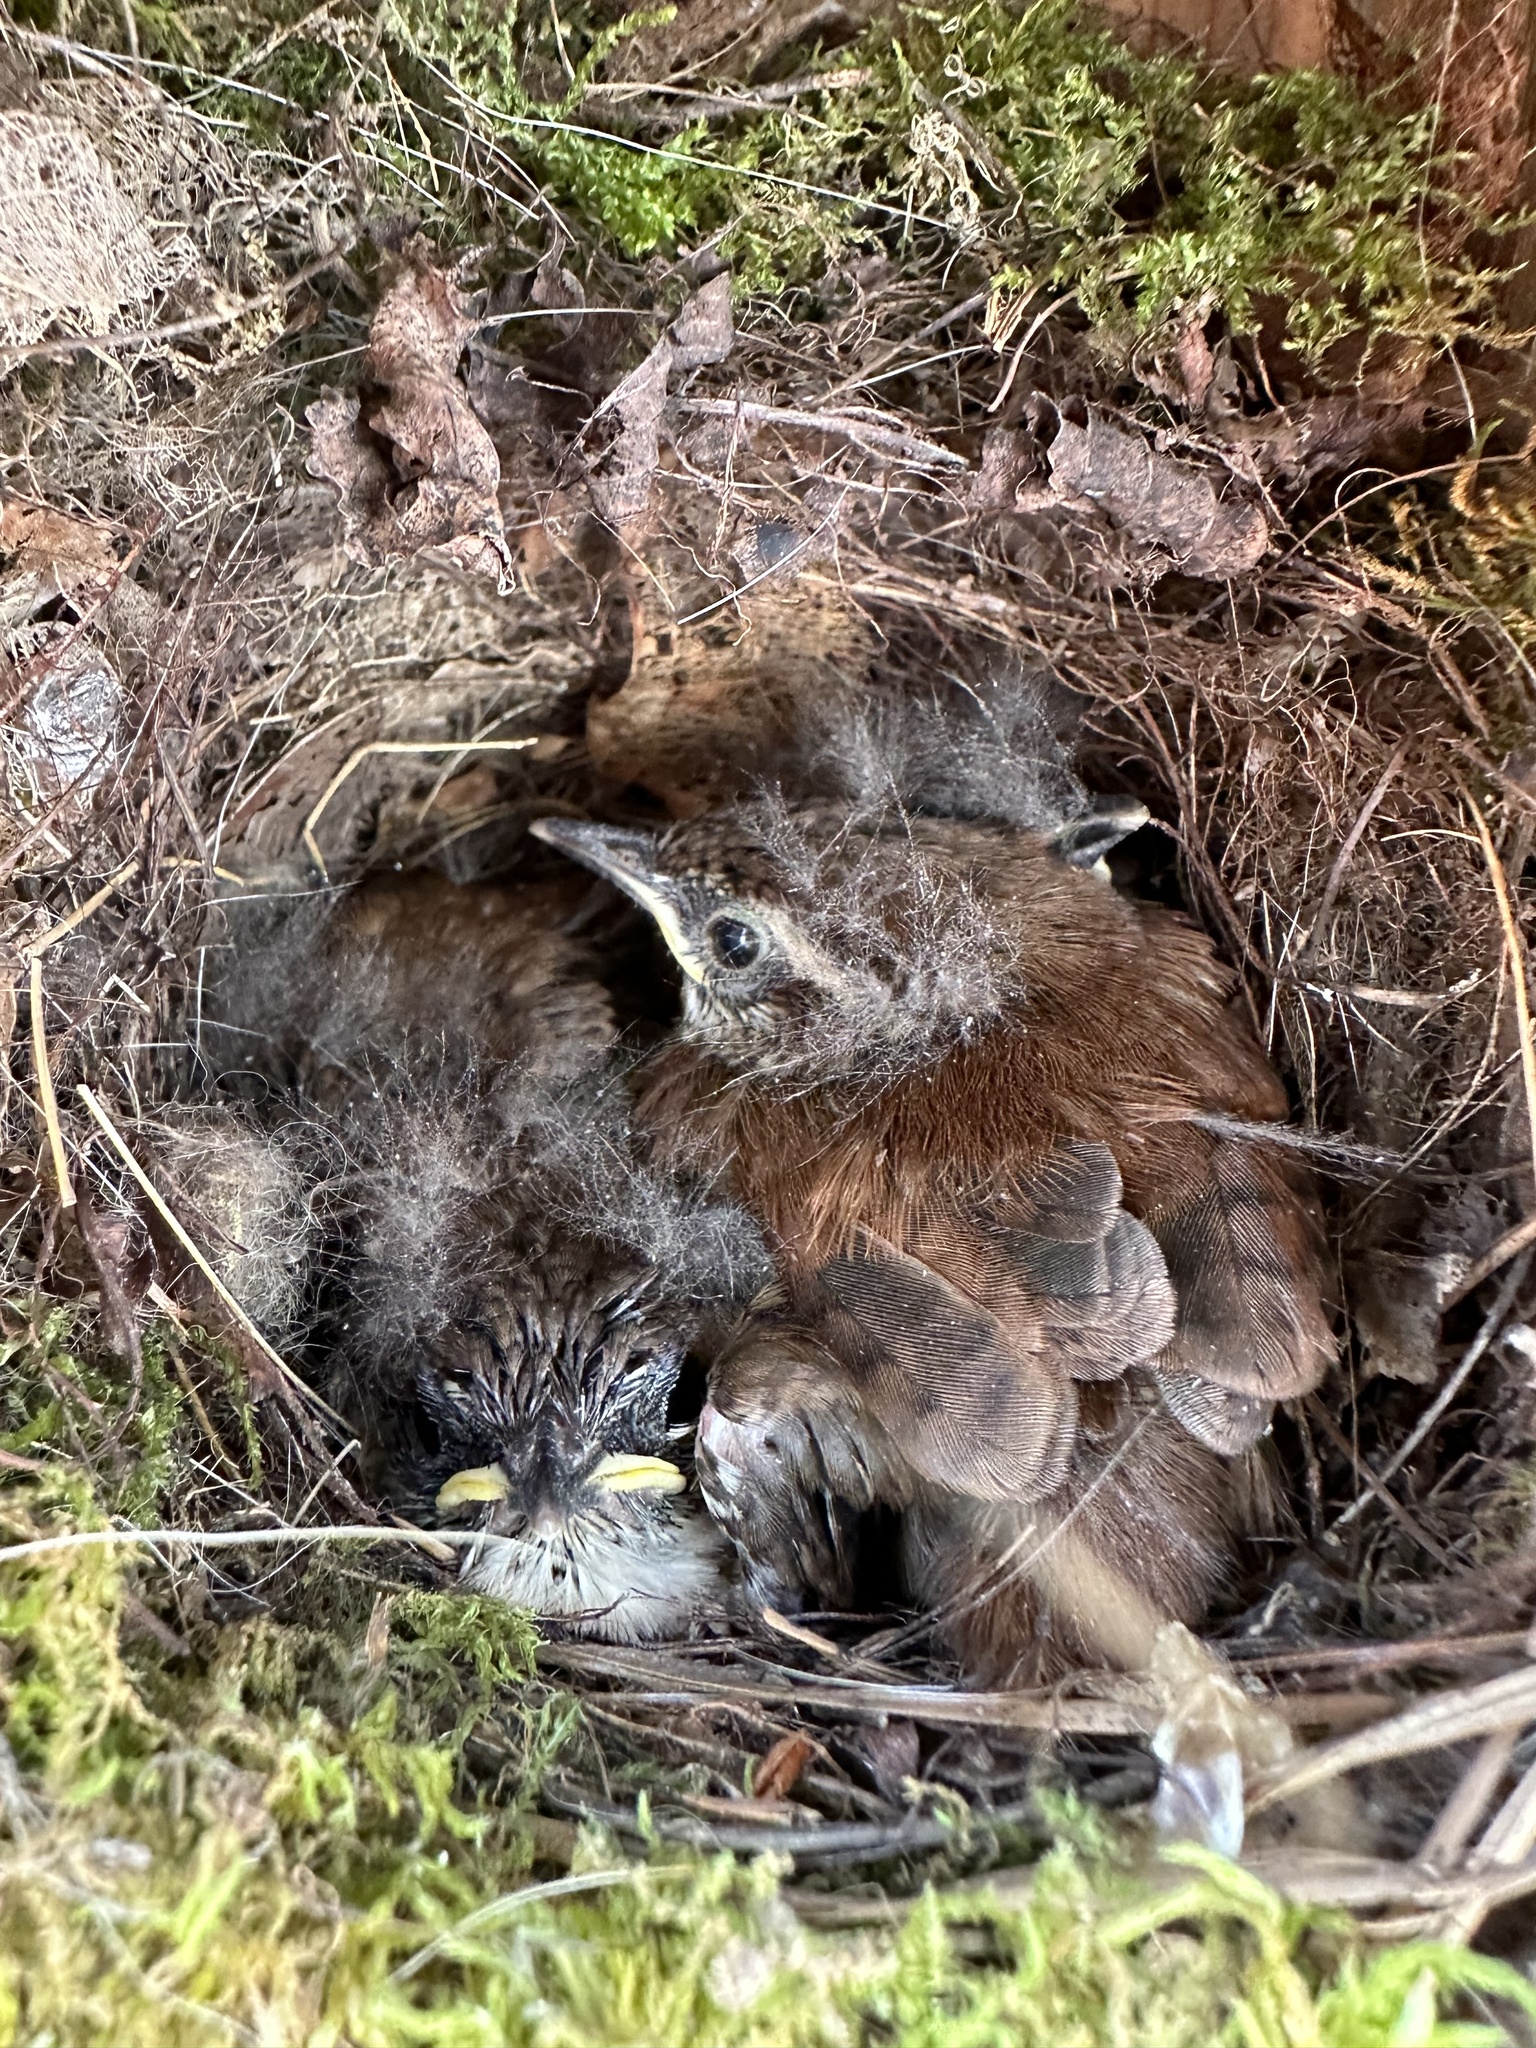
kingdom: Animalia
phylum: Chordata
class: Aves
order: Passeriformes
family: Troglodytidae
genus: Thryothorus
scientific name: Thryothorus ludovicianus
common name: Carolina wren
